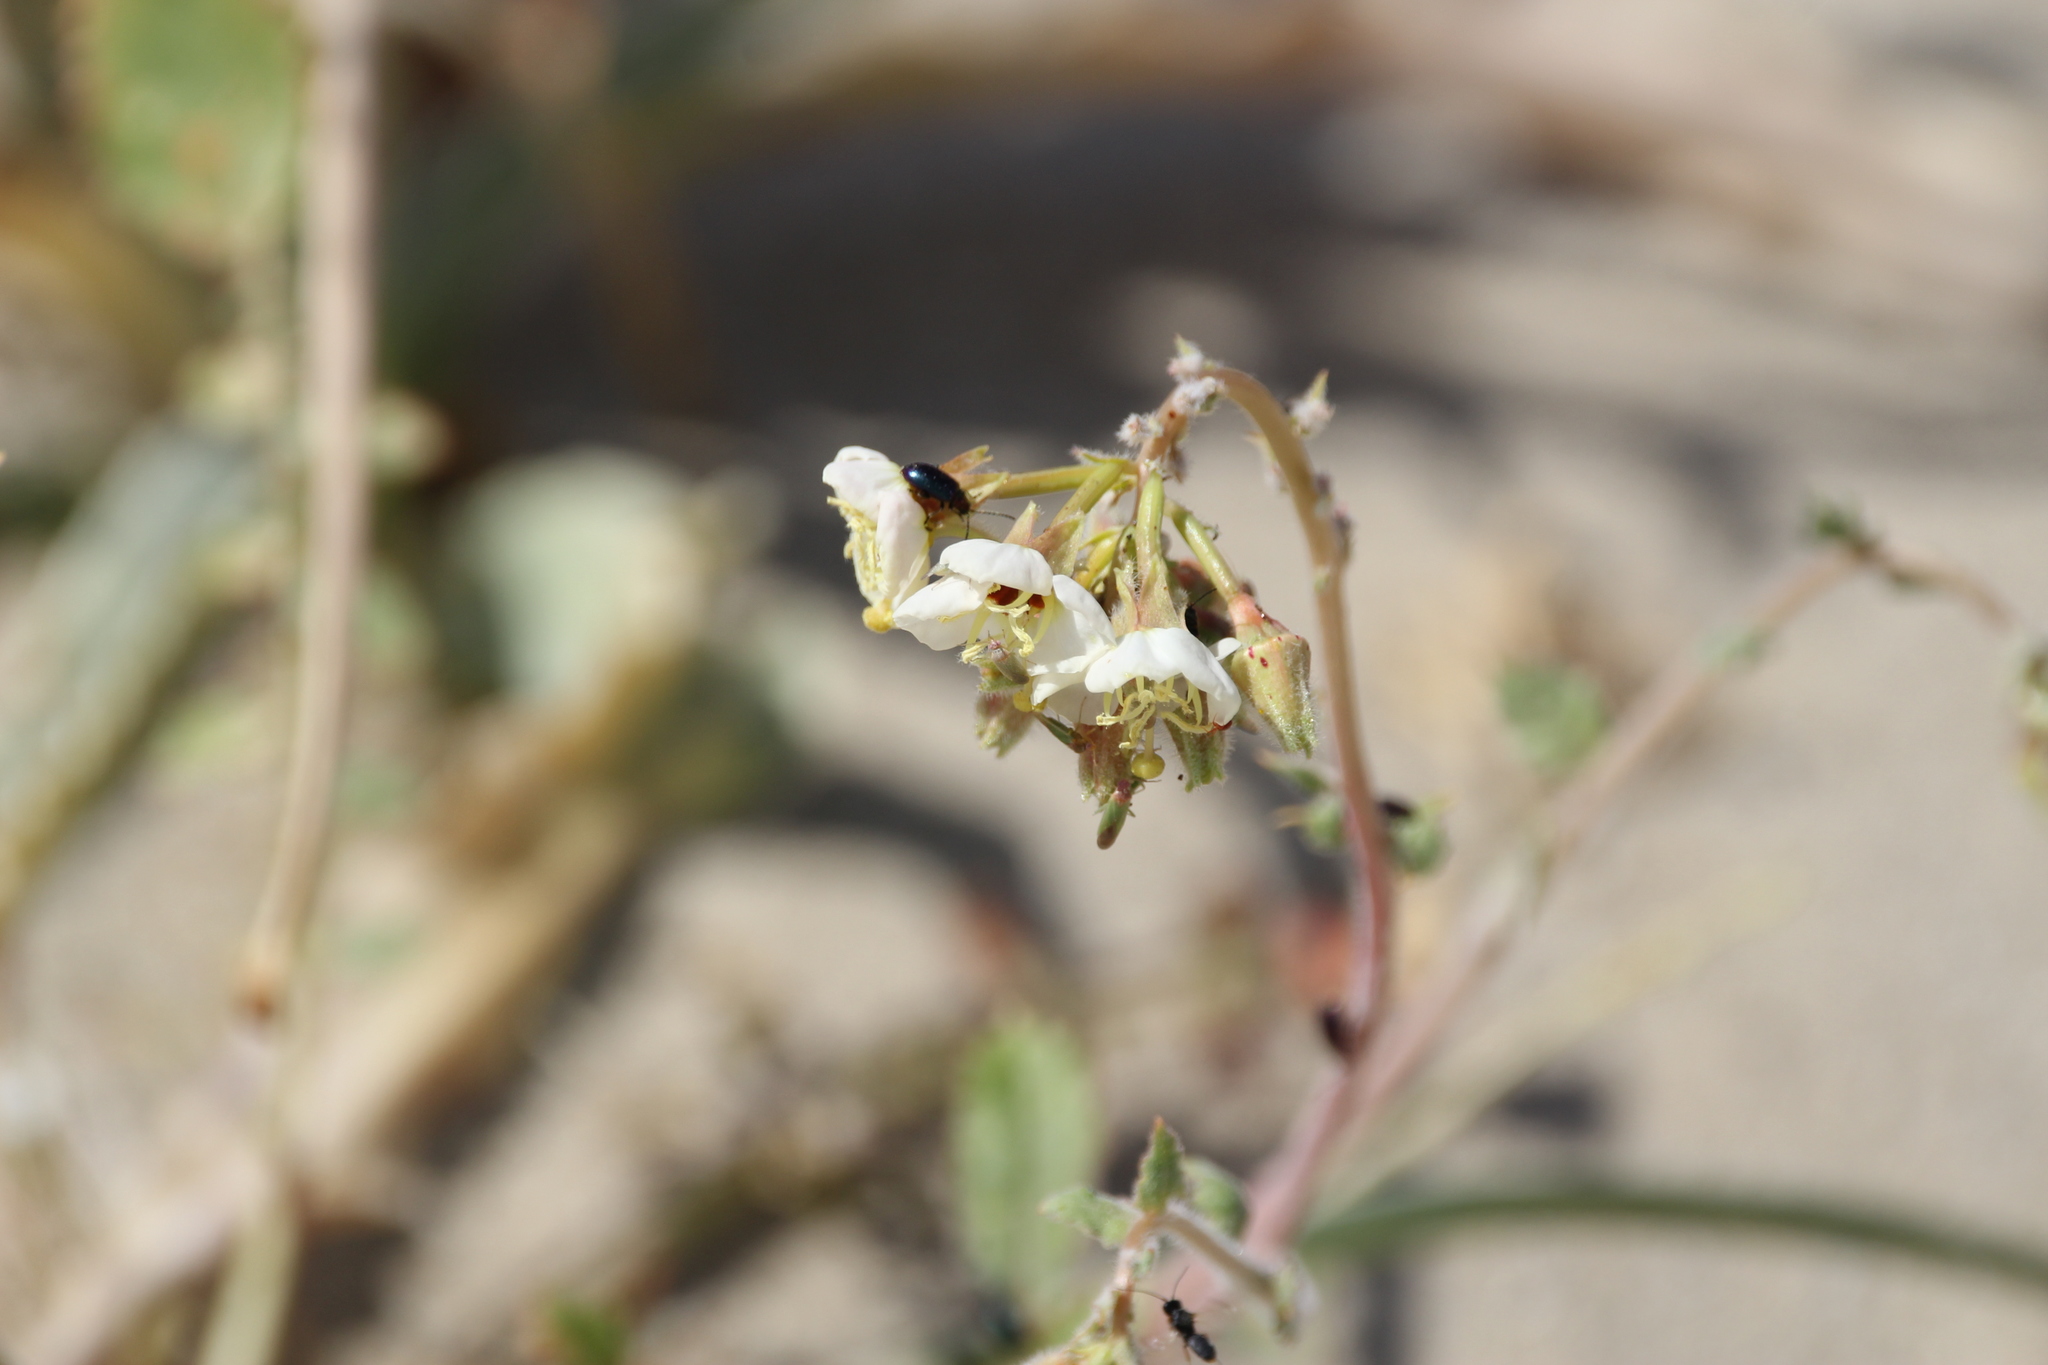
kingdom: Plantae
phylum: Tracheophyta
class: Magnoliopsida
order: Myrtales
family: Onagraceae
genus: Chylismia
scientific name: Chylismia claviformis
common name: Browneyes
